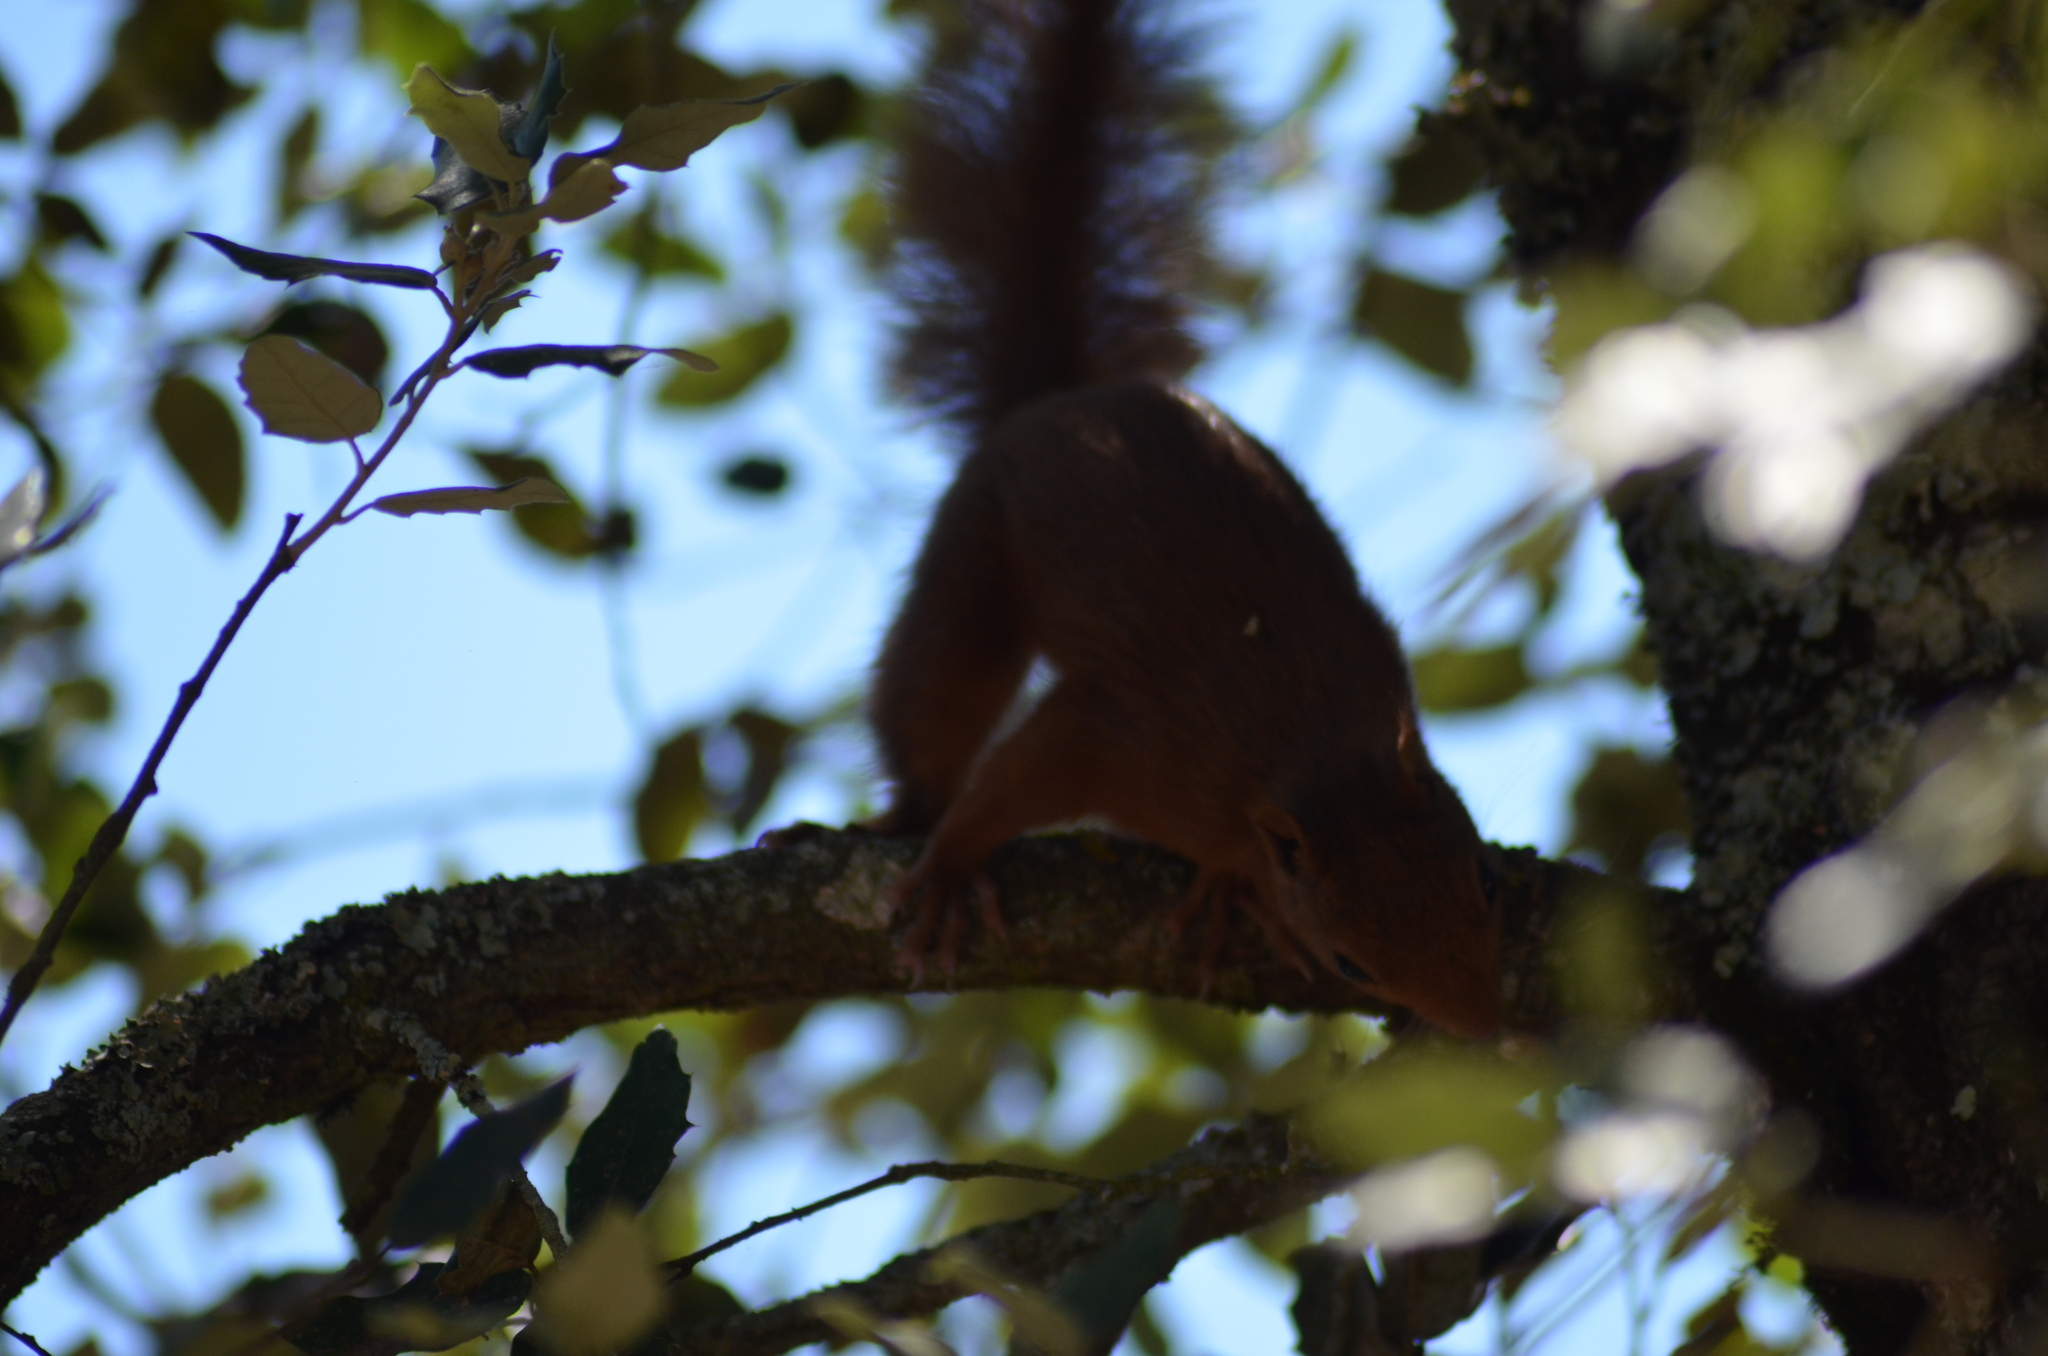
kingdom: Animalia
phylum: Chordata
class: Mammalia
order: Rodentia
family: Sciuridae
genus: Sciurus
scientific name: Sciurus vulgaris
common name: Eurasian red squirrel
